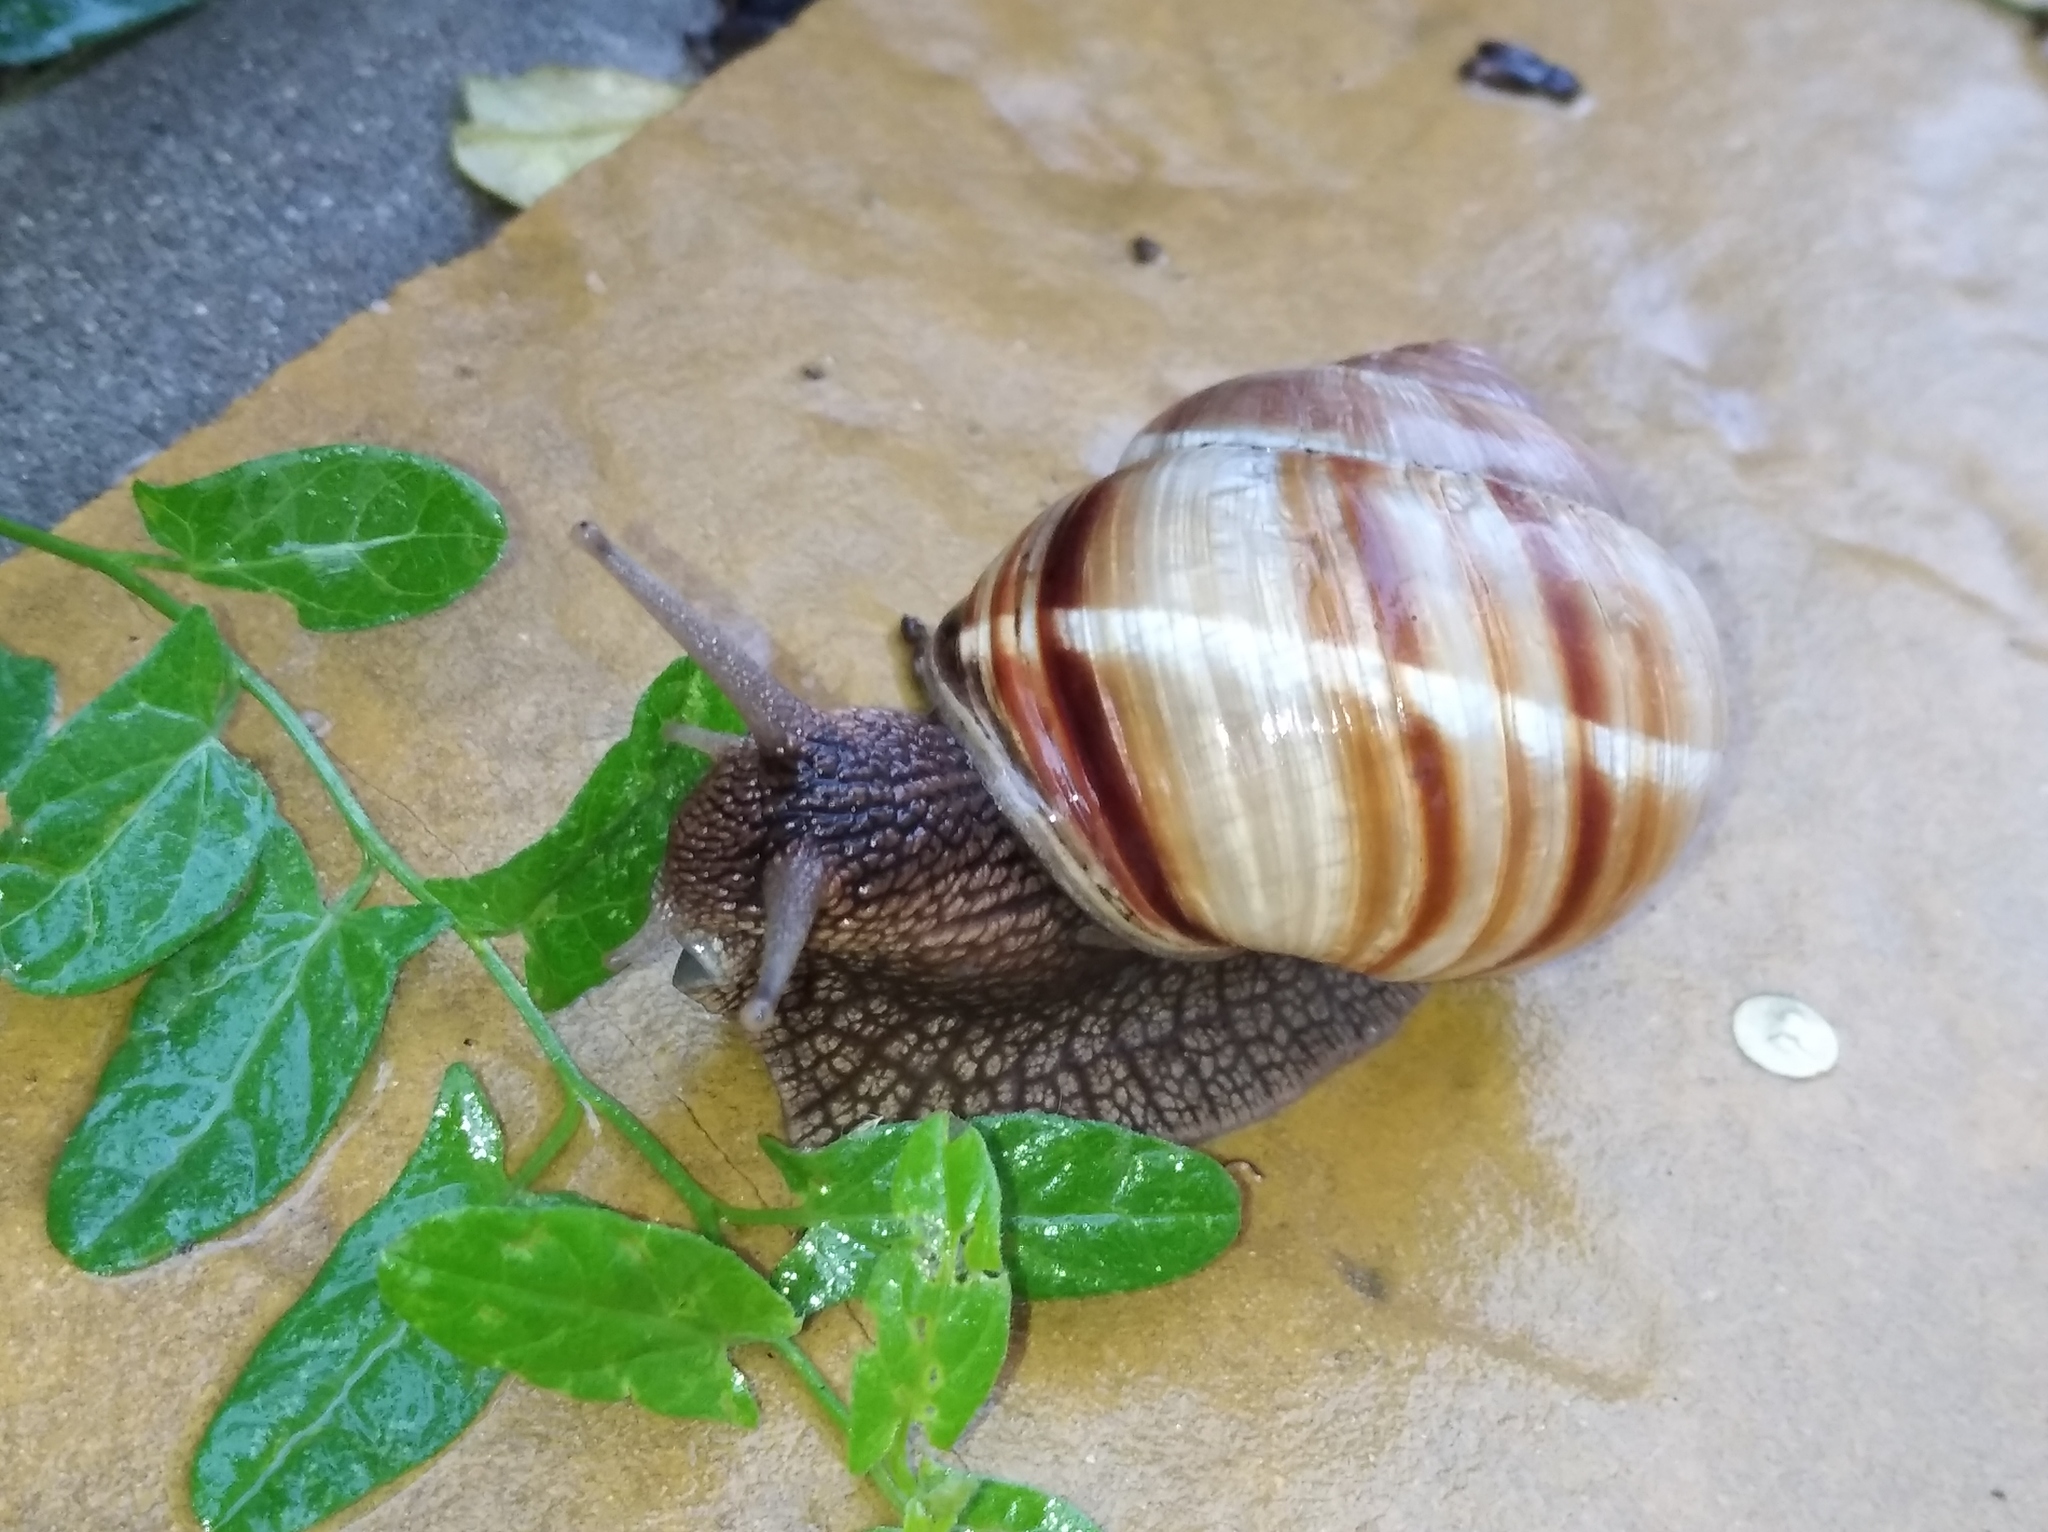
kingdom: Animalia
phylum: Mollusca
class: Gastropoda
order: Stylommatophora
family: Helicidae
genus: Helix
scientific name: Helix lucorum
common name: Turkish snail
